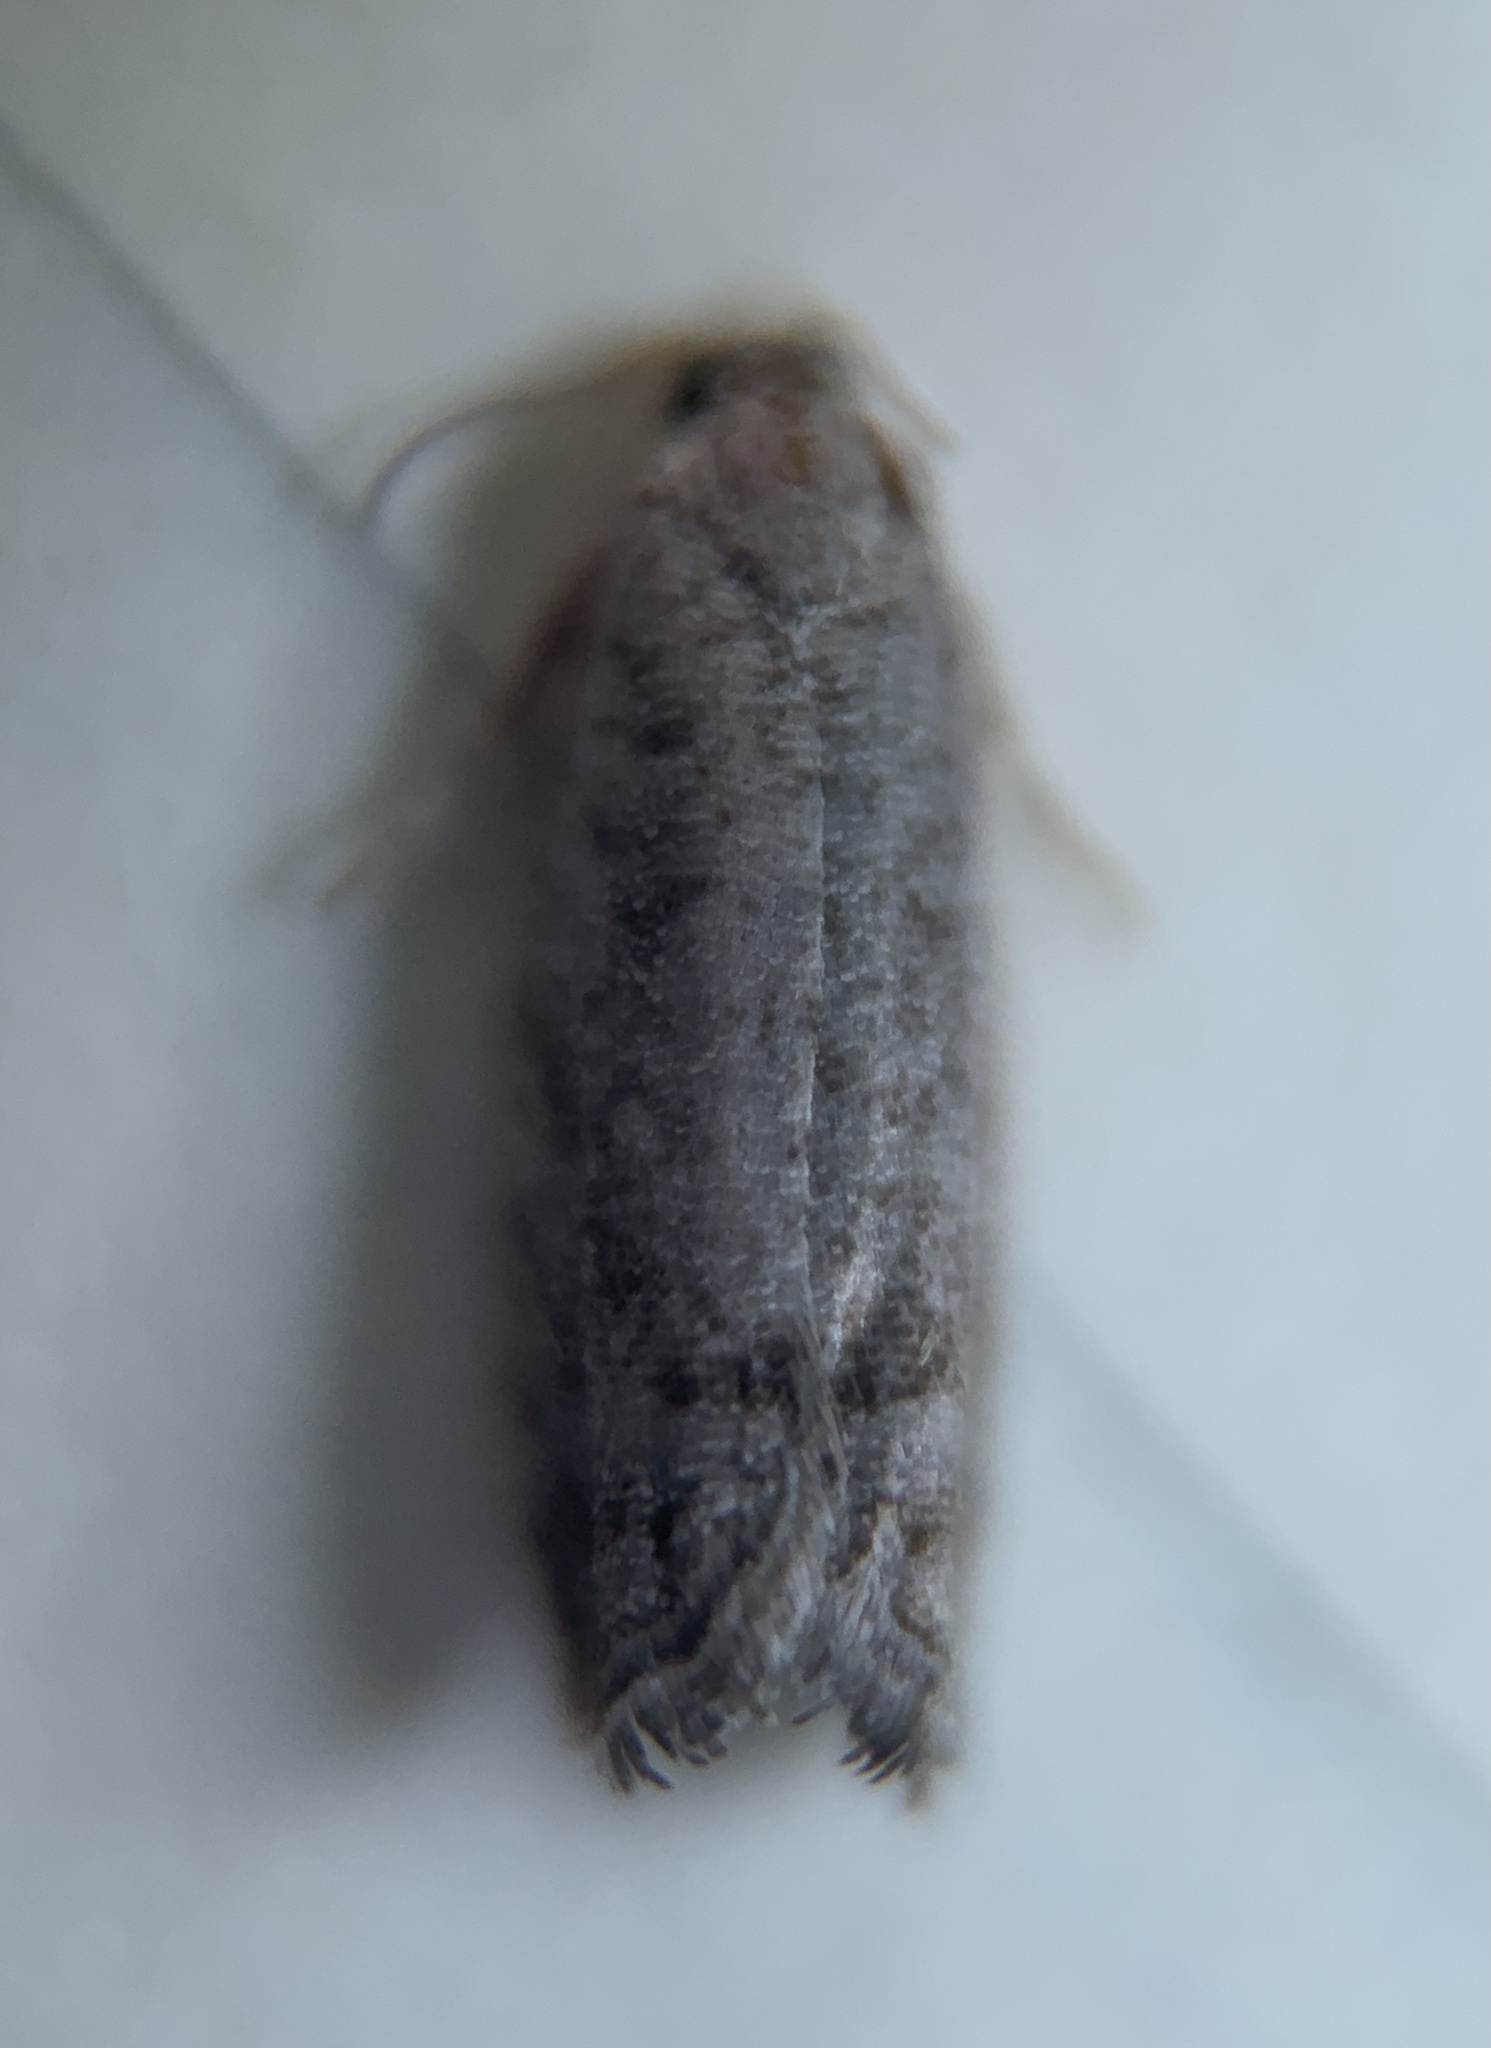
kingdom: Animalia
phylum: Arthropoda
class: Insecta
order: Lepidoptera
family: Tortricidae
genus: Eucosma
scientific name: Eucosma
